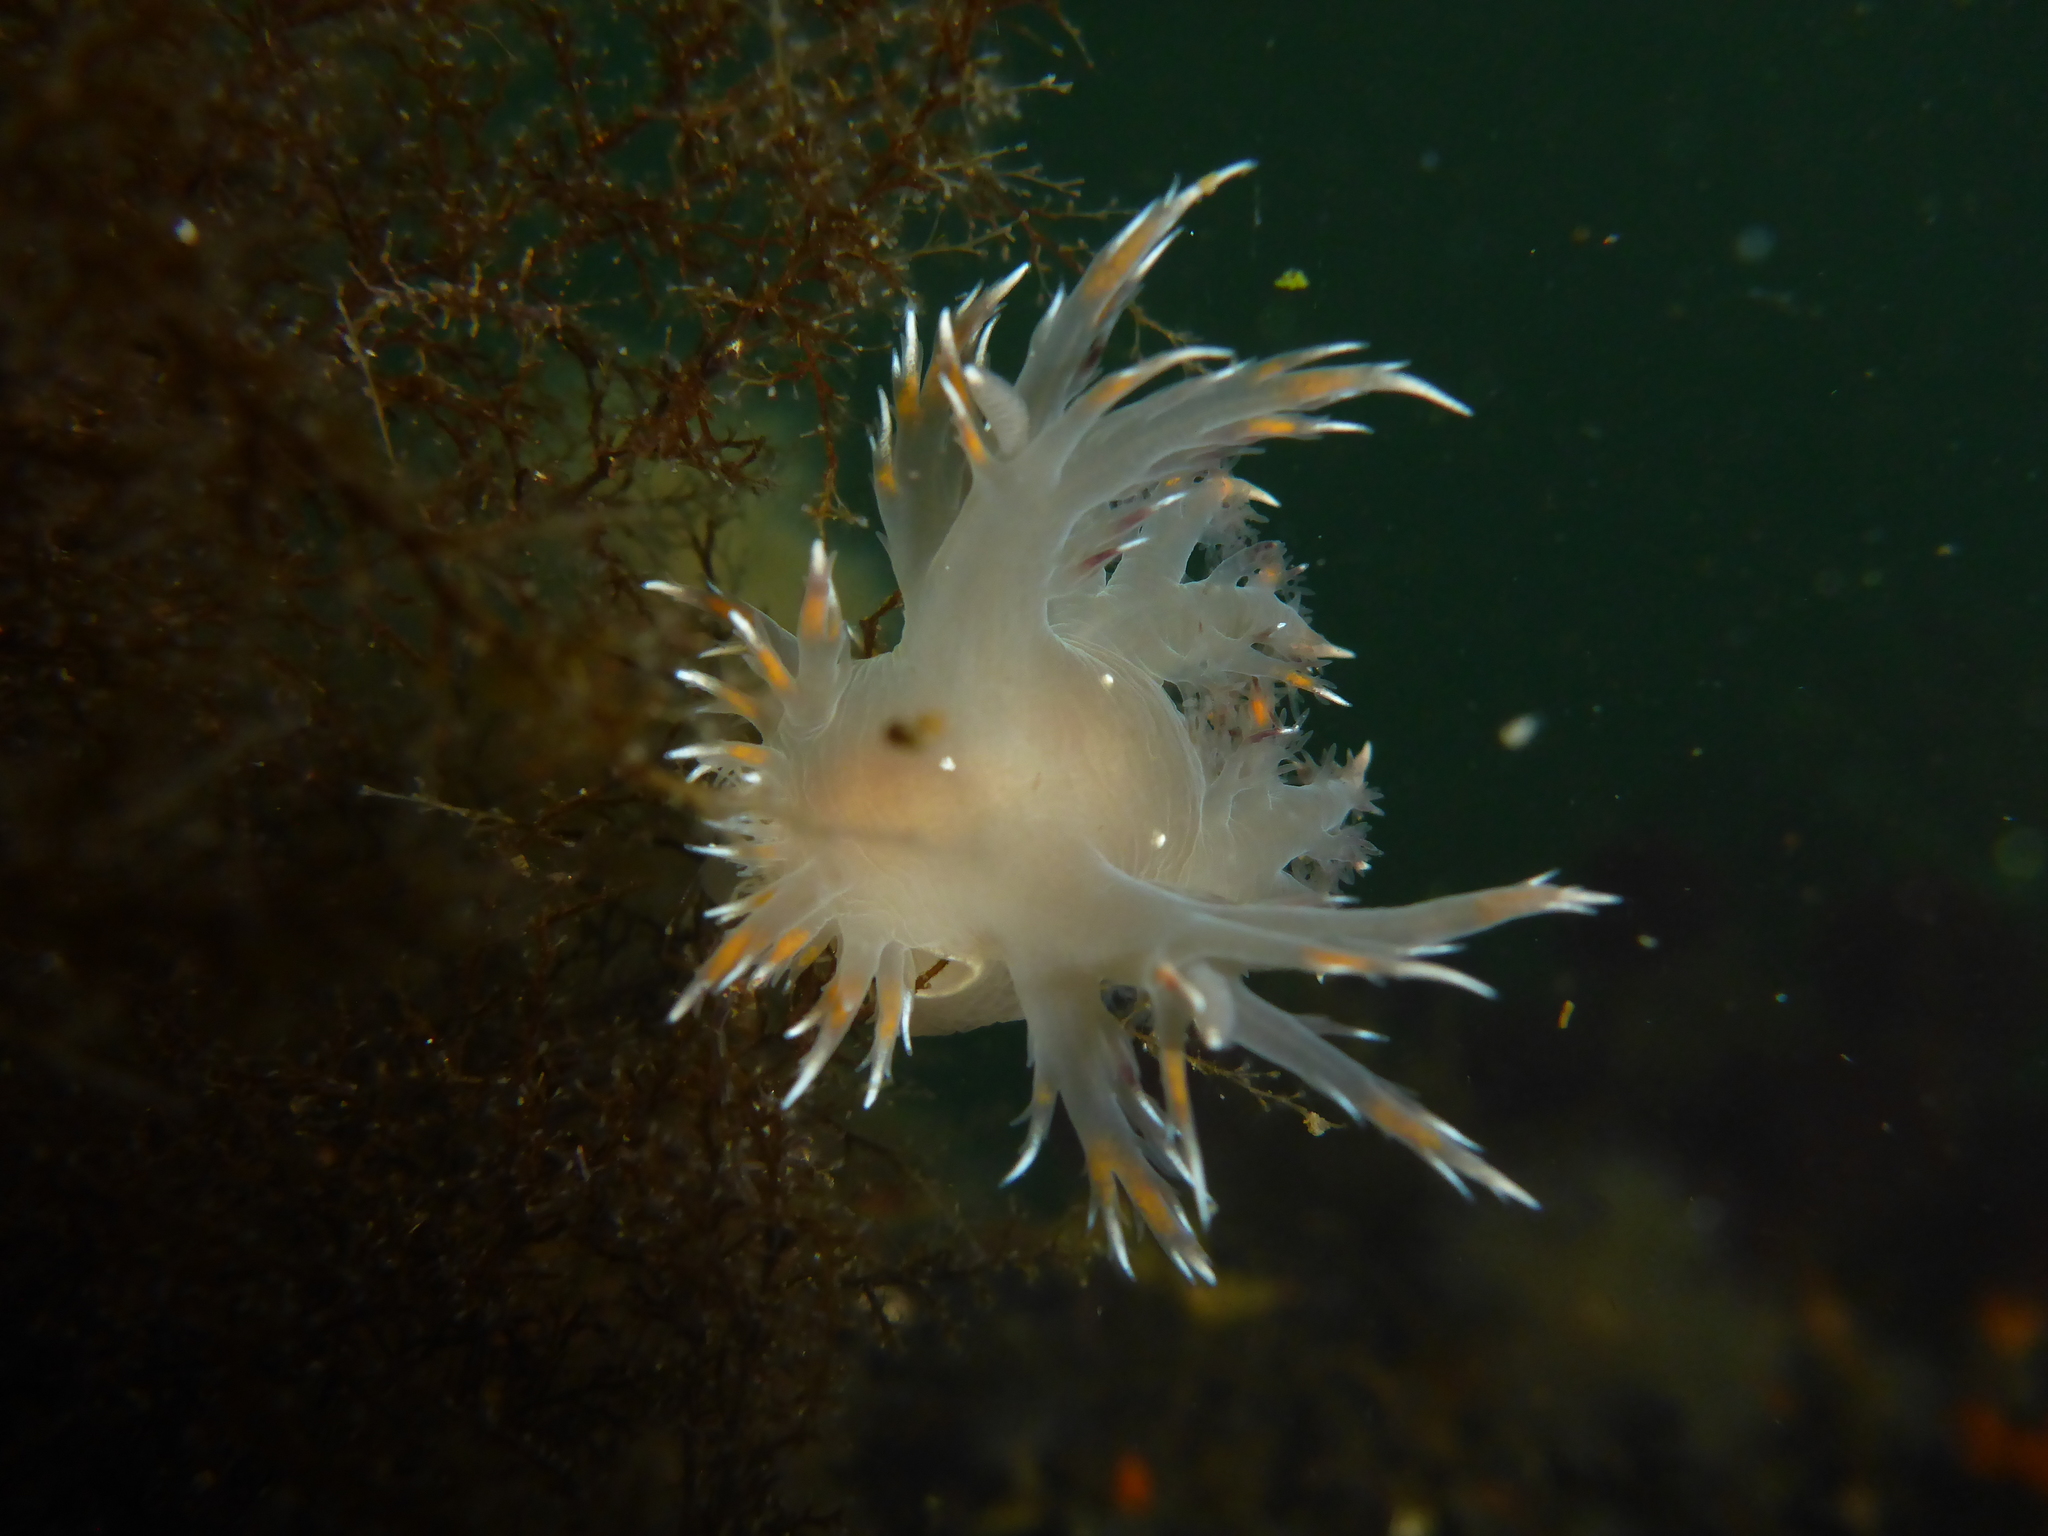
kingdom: Animalia
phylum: Mollusca
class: Gastropoda
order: Nudibranchia
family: Dendronotidae
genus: Dendronotus
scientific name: Dendronotus iris
